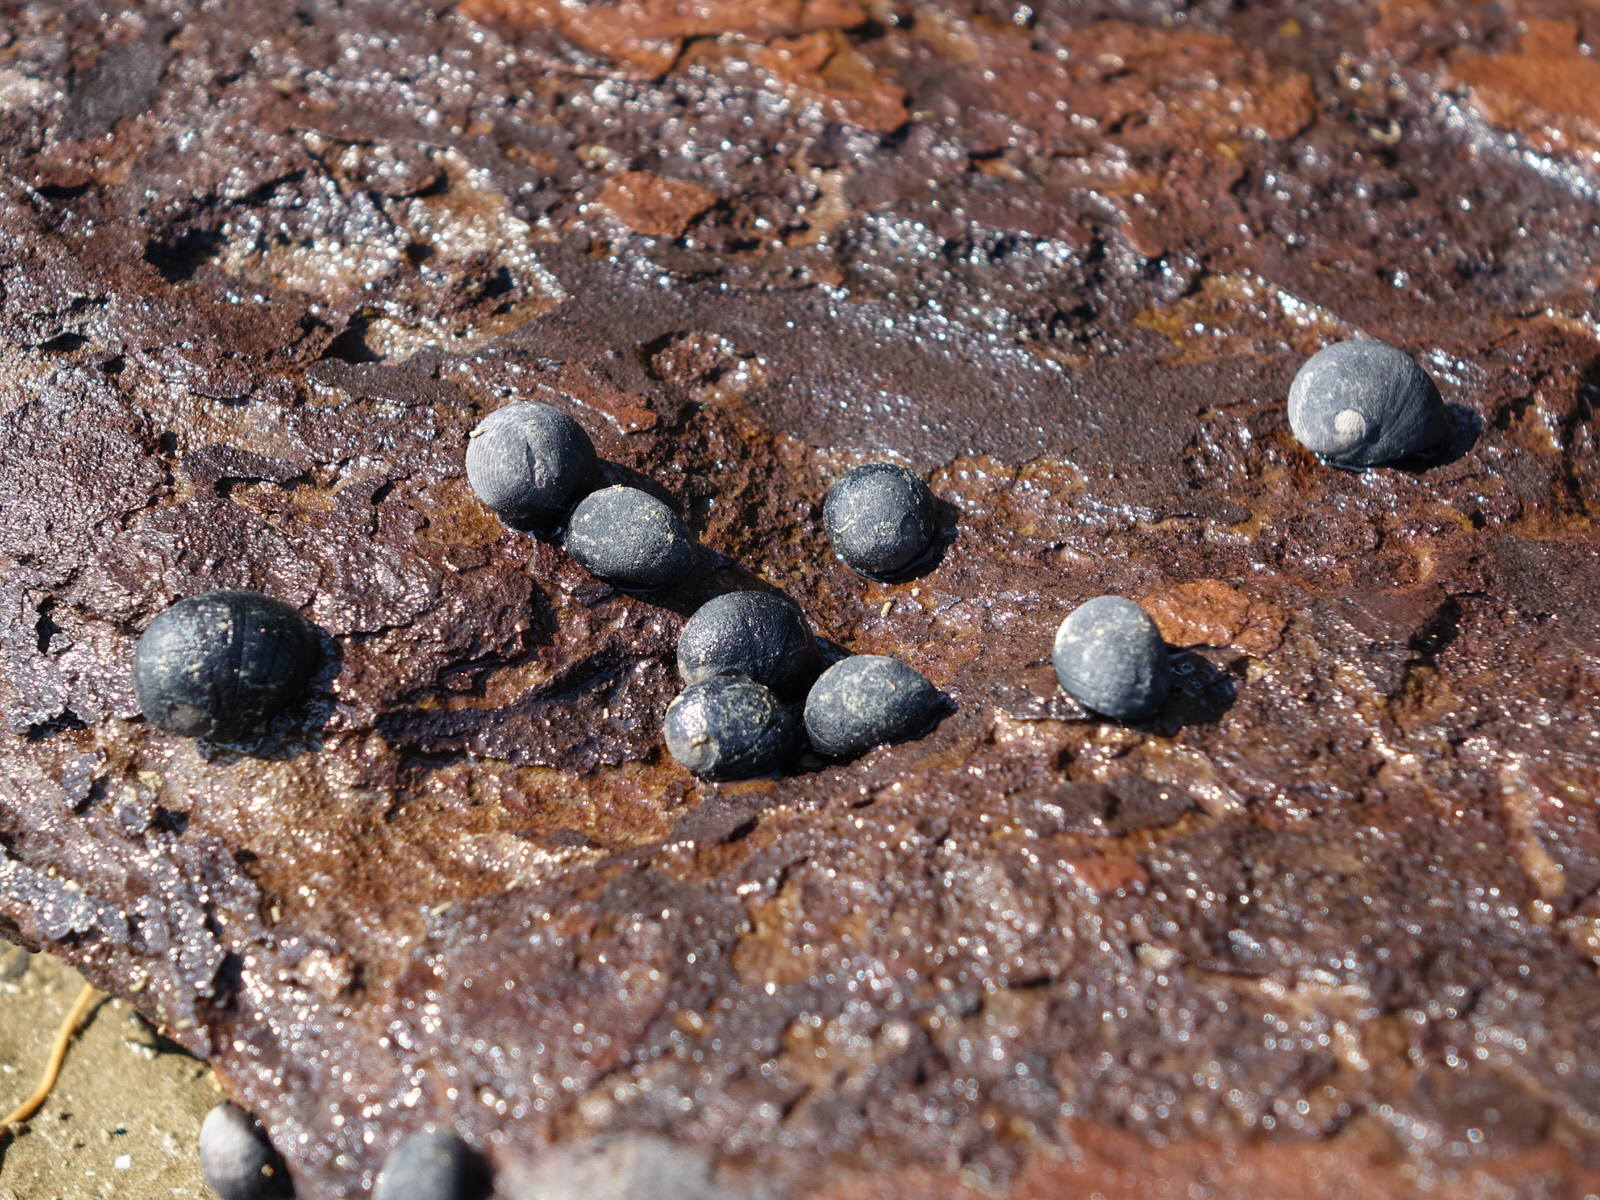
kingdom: Animalia
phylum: Mollusca
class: Gastropoda
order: Cycloneritida
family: Neritidae
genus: Nerita
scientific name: Nerita melanotragus
